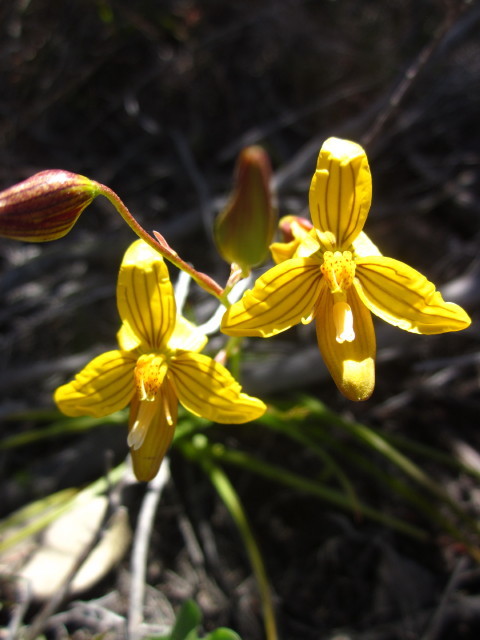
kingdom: Plantae
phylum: Tracheophyta
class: Liliopsida
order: Asparagales
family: Tecophilaeaceae
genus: Cyanella
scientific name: Cyanella lutea
